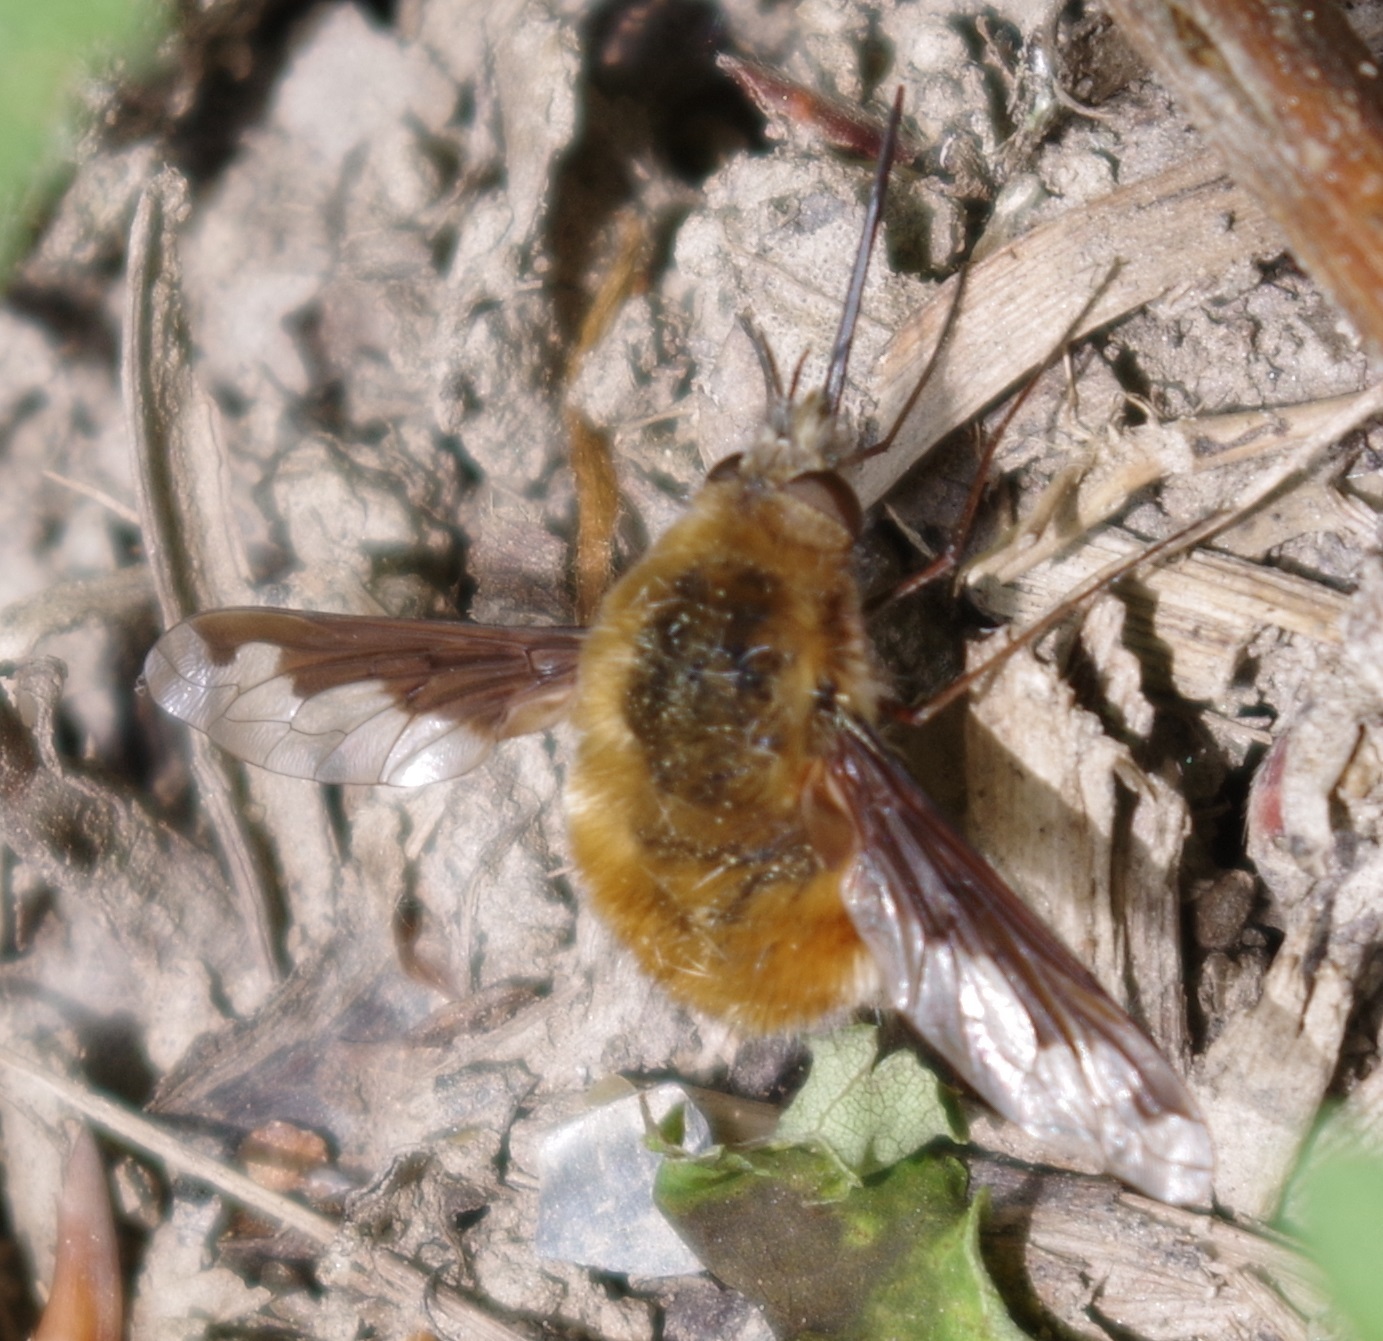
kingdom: Animalia
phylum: Arthropoda
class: Insecta
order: Diptera
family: Bombyliidae
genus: Bombylius
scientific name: Bombylius major
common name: Bee fly
